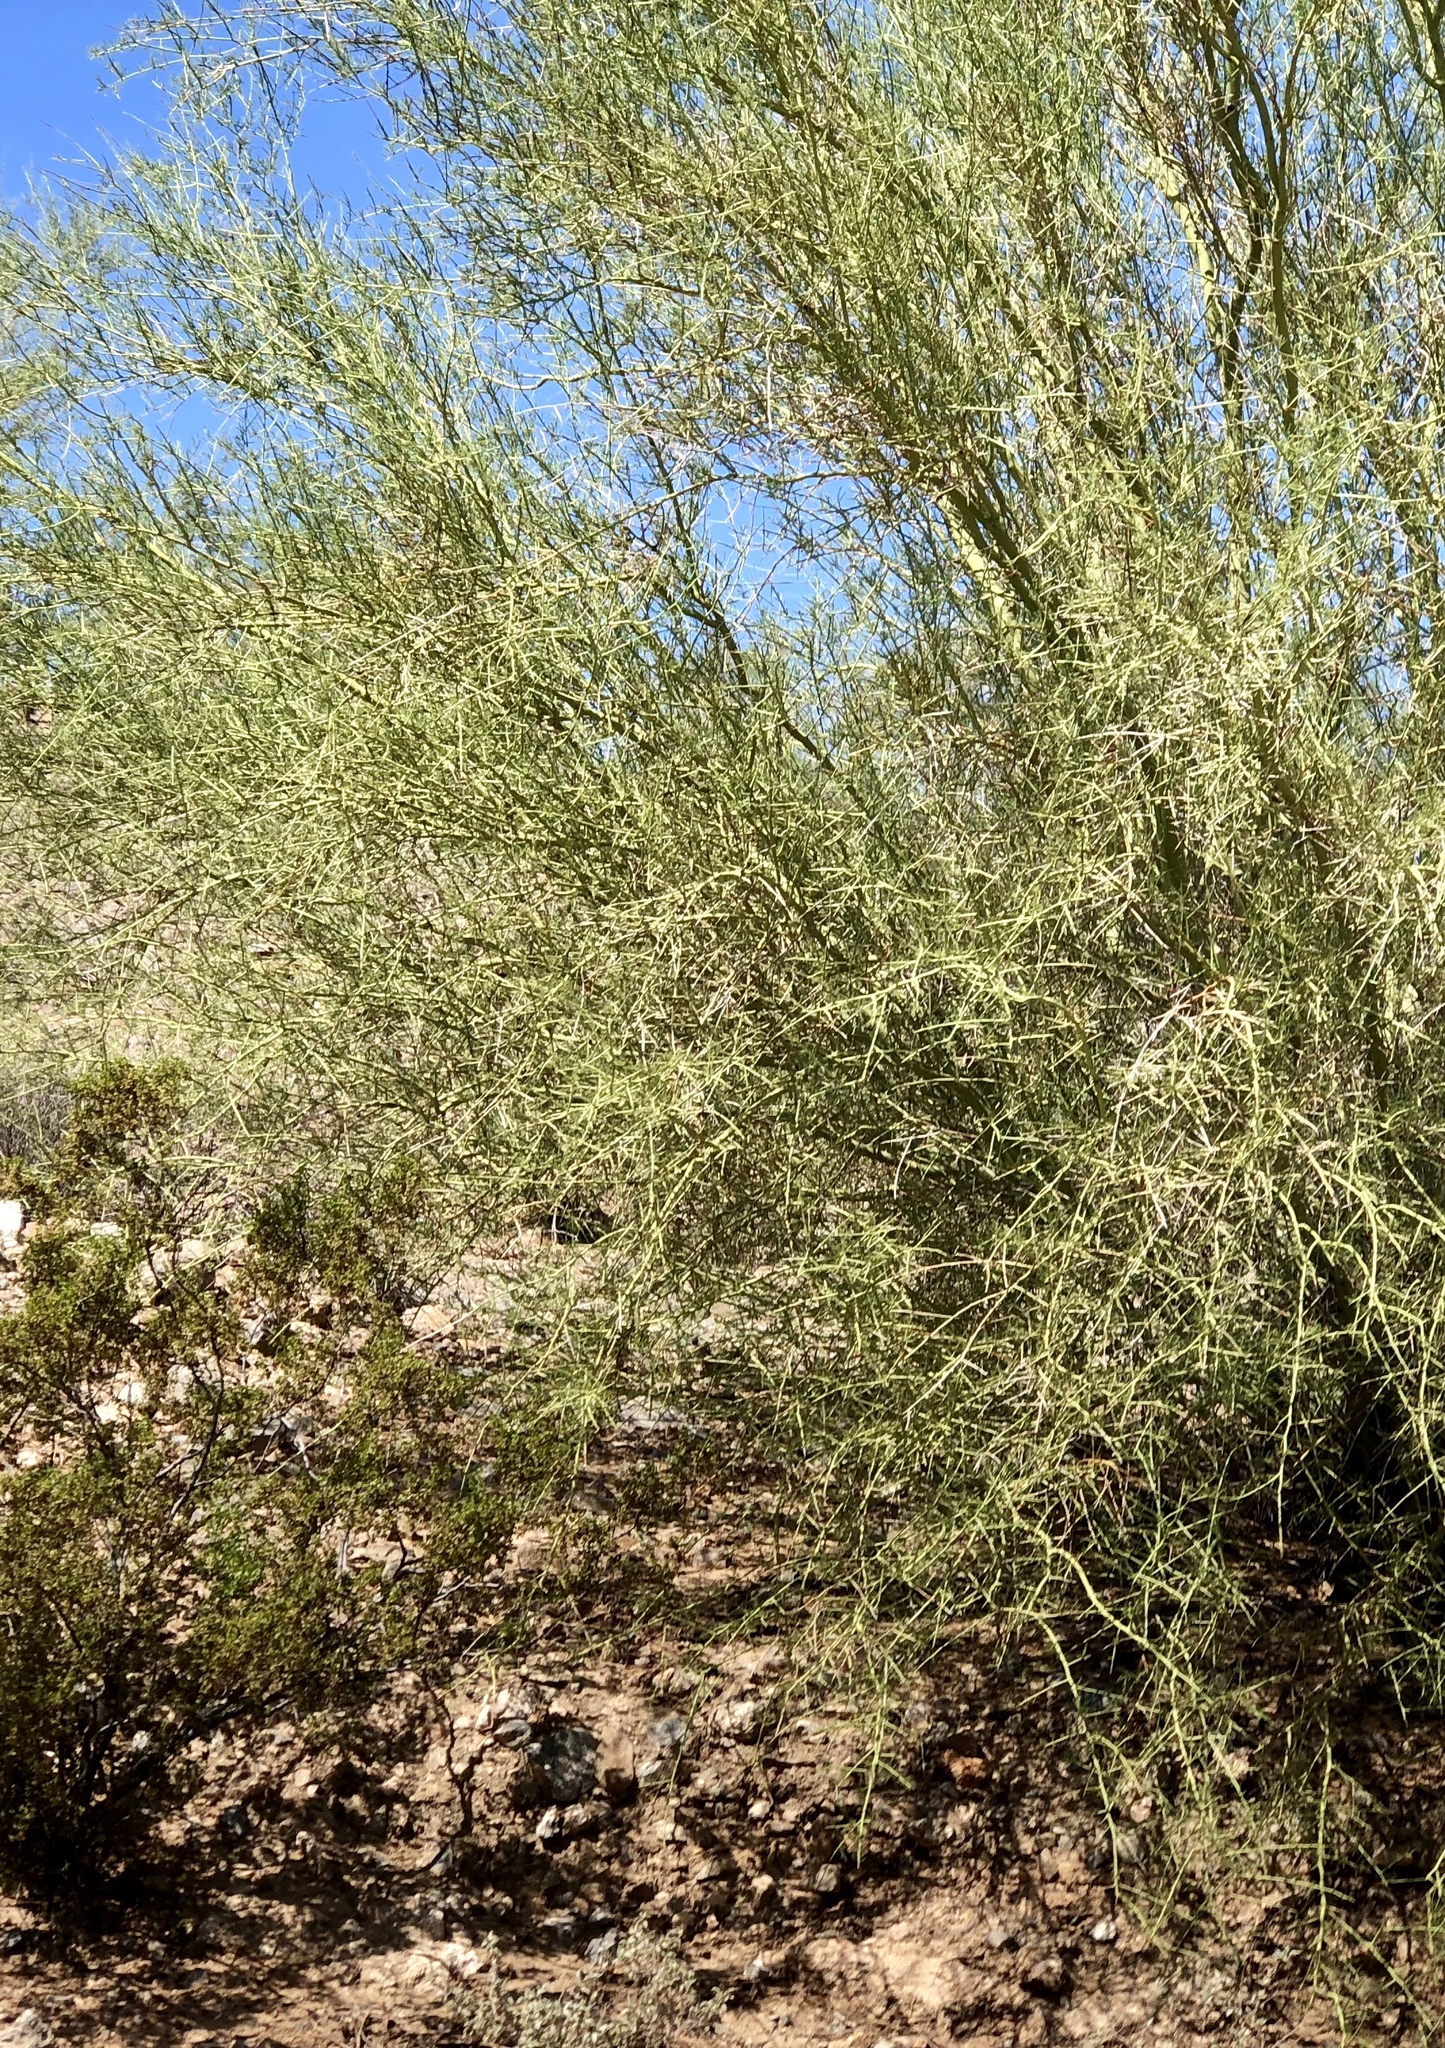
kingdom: Plantae
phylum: Tracheophyta
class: Magnoliopsida
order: Fabales
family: Fabaceae
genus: Parkinsonia
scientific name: Parkinsonia microphylla
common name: Yellow paloverde
